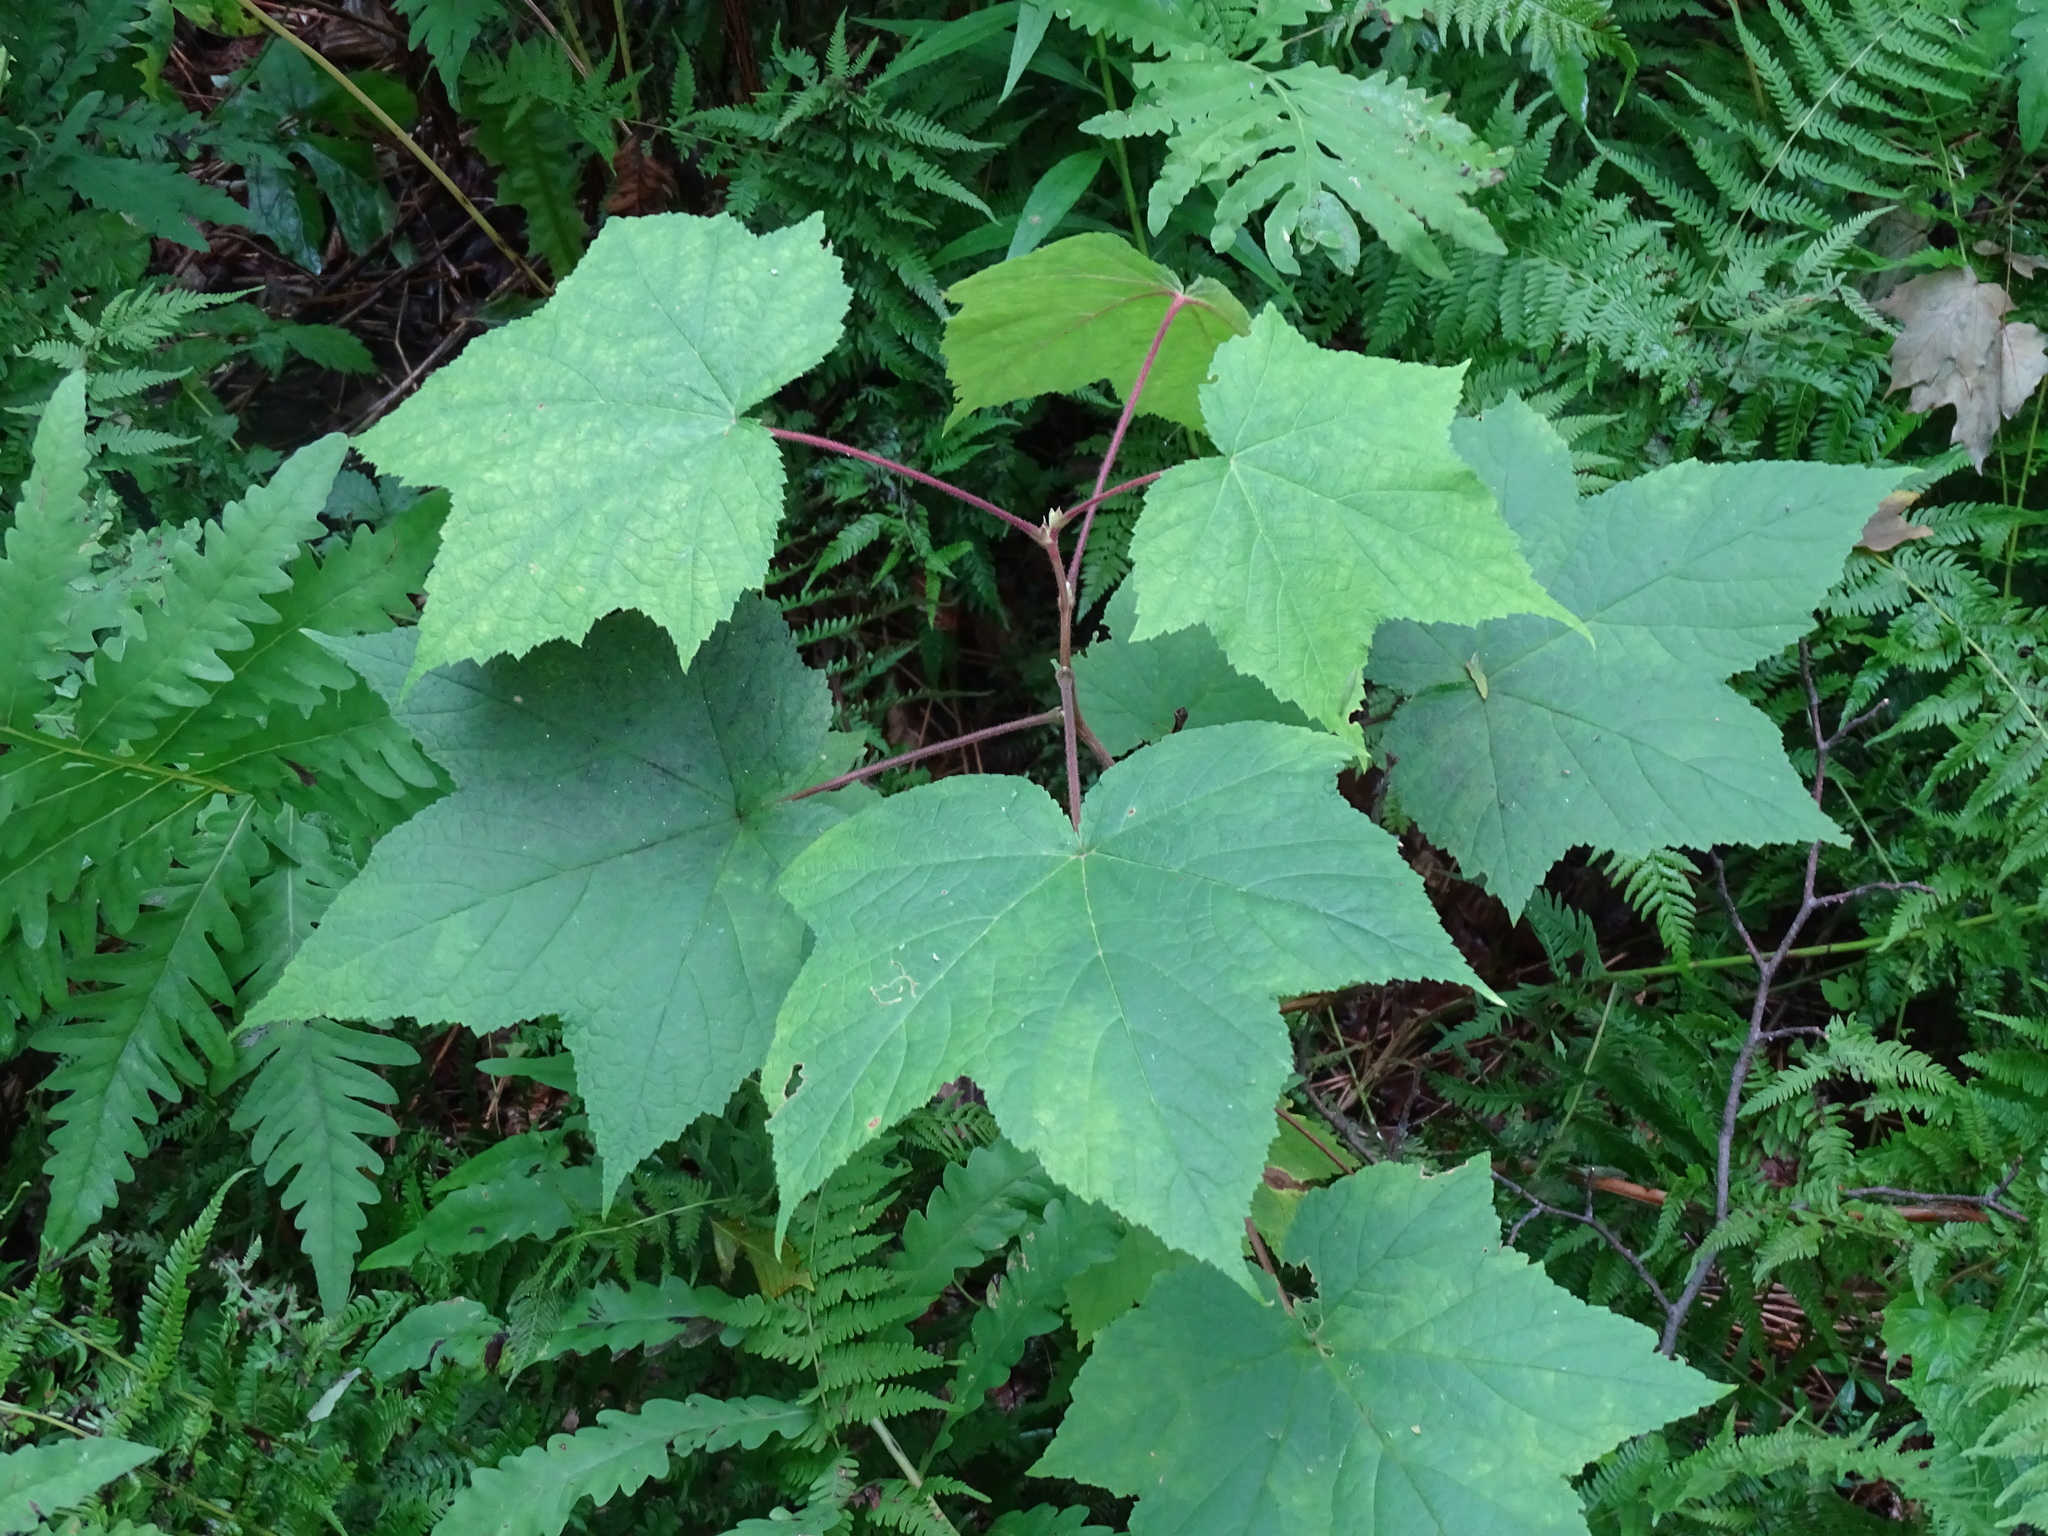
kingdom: Plantae
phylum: Tracheophyta
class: Magnoliopsida
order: Rosales
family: Rosaceae
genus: Rubus
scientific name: Rubus odoratus
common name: Purple-flowered raspberry
